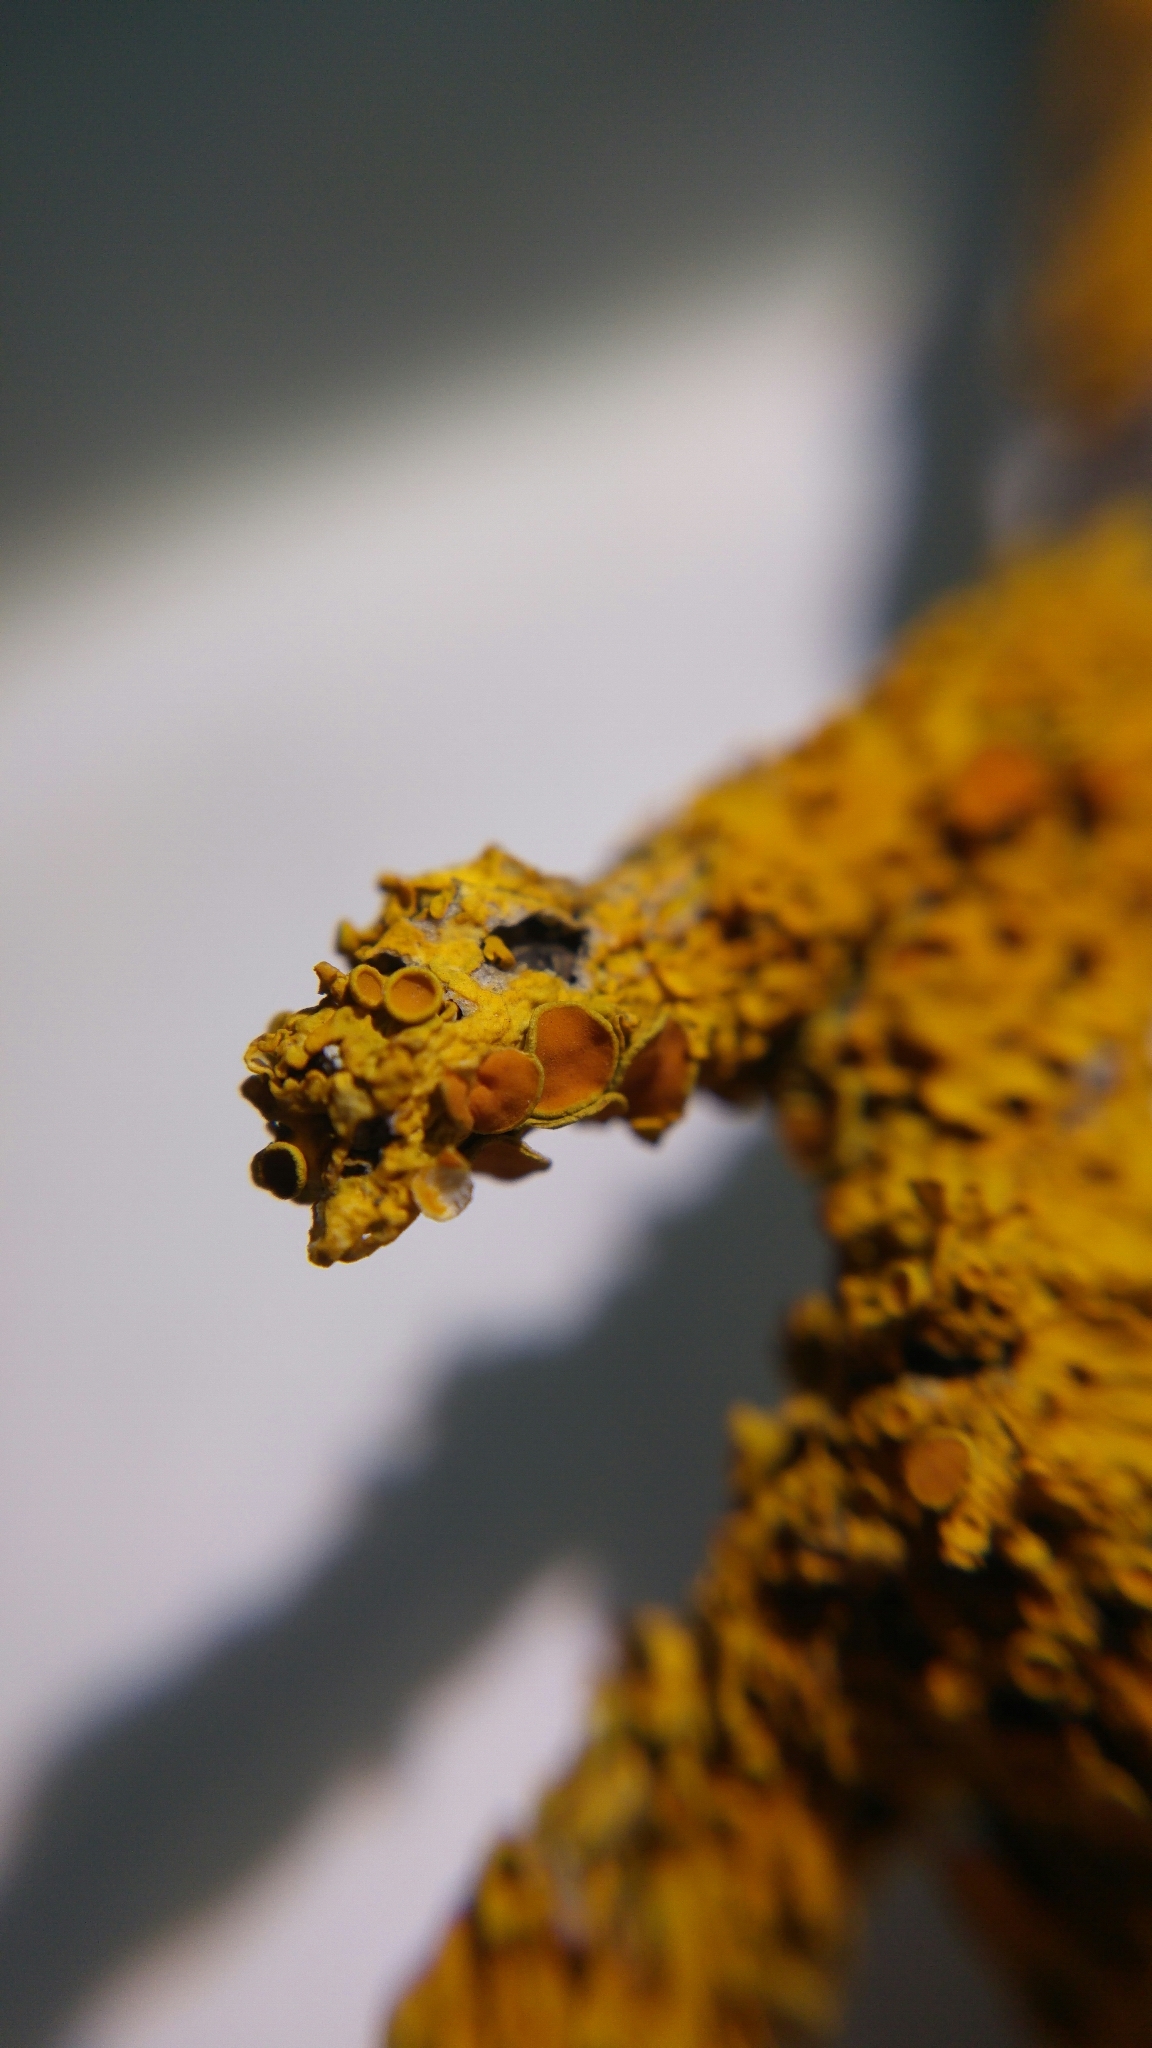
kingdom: Fungi
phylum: Ascomycota
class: Lecanoromycetes
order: Teloschistales
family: Teloschistaceae
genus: Xanthoria
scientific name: Xanthoria parietina
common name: Common orange lichen
